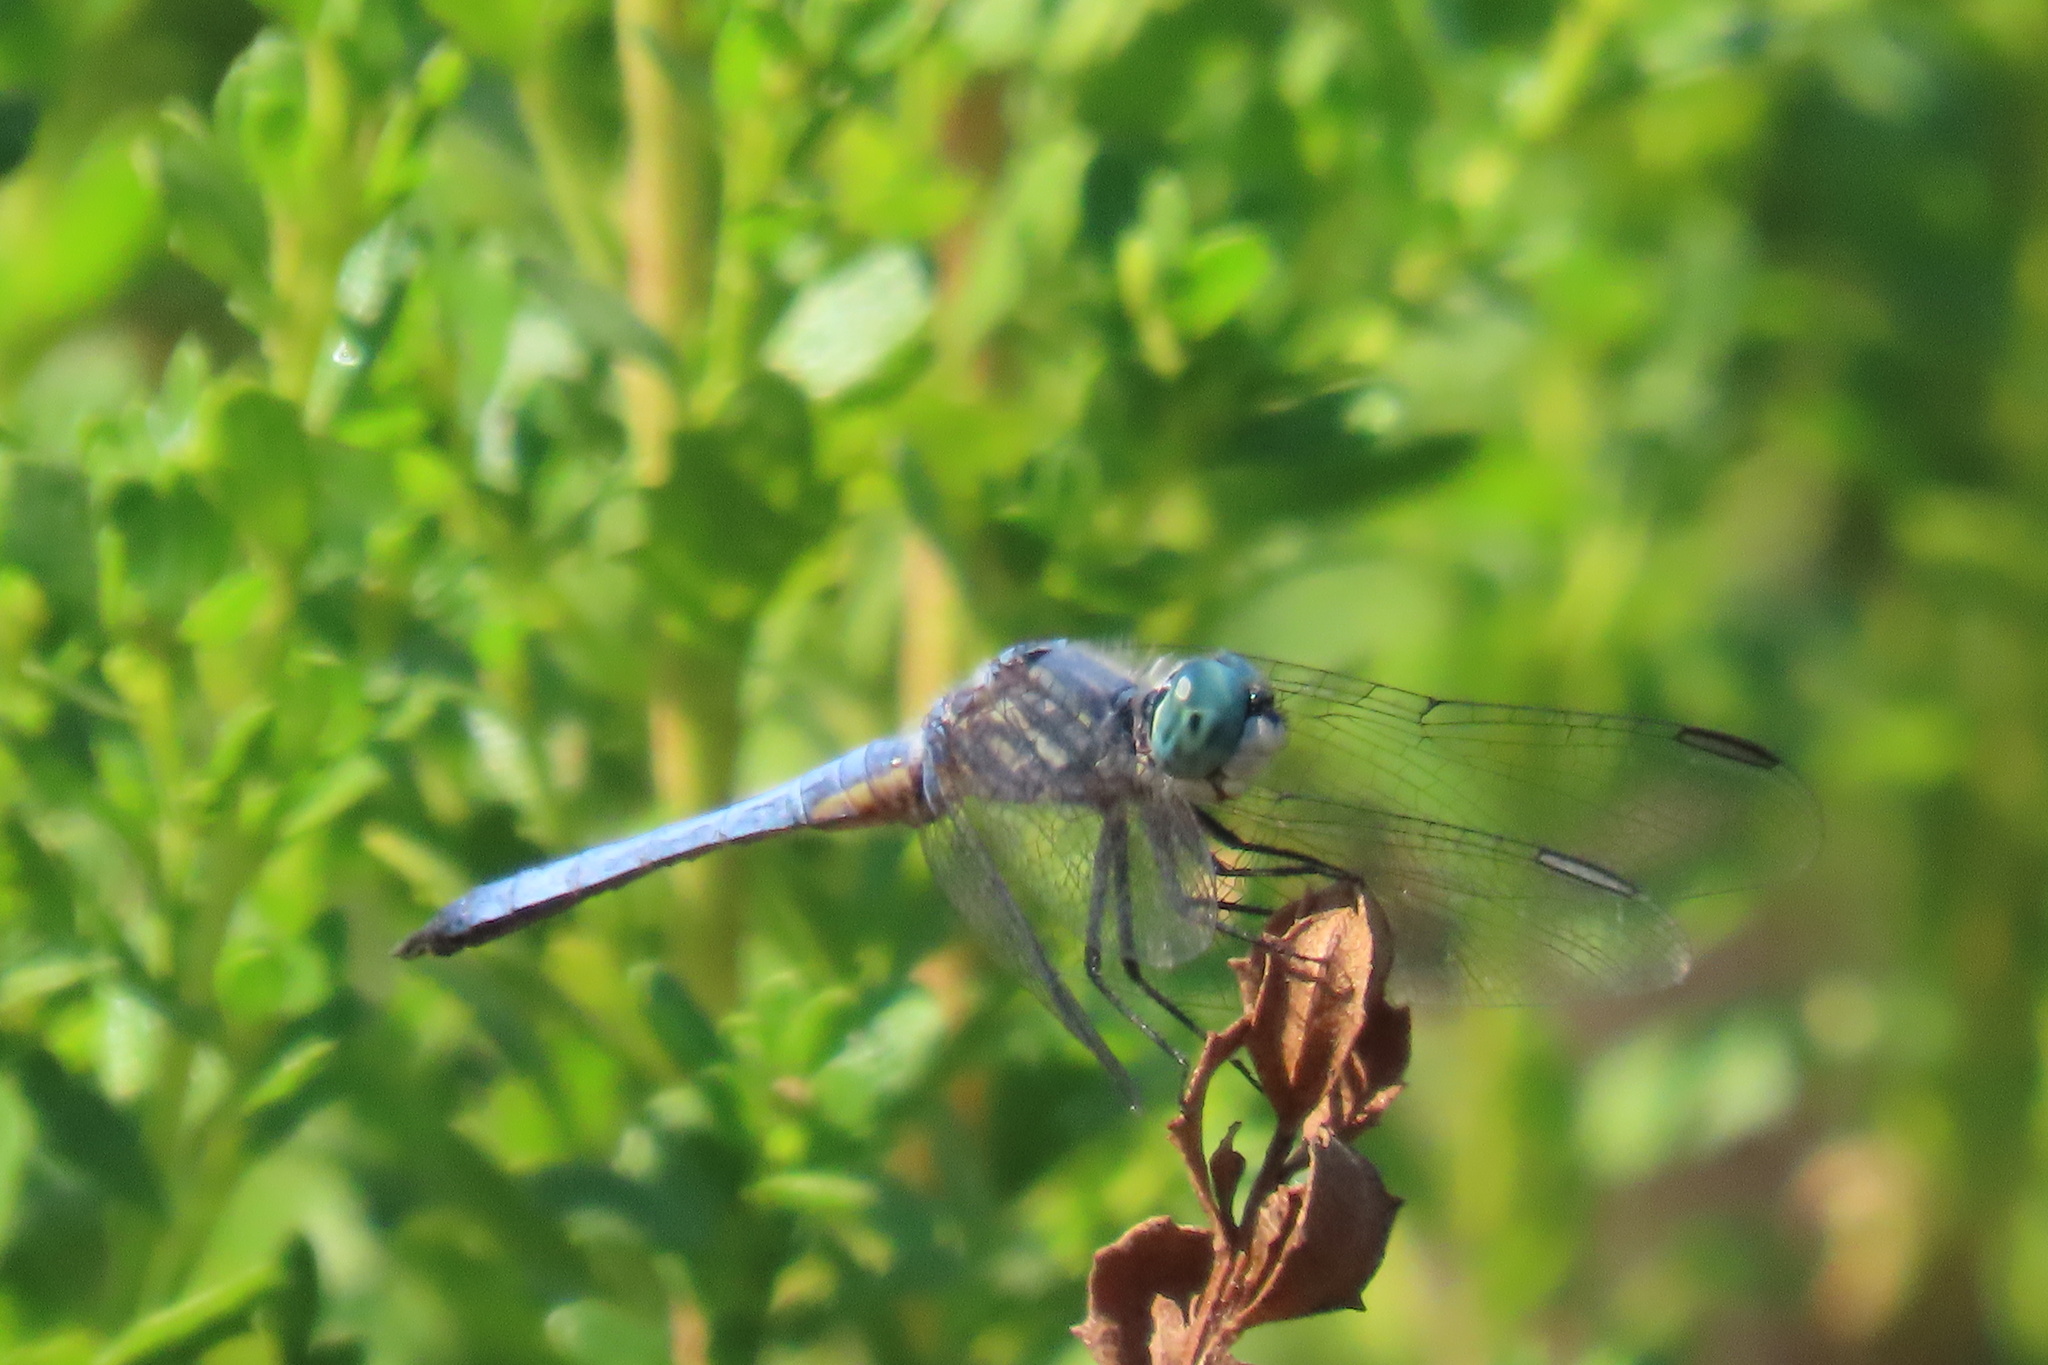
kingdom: Animalia
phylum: Arthropoda
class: Insecta
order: Odonata
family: Libellulidae
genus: Pachydiplax
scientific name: Pachydiplax longipennis
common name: Blue dasher
